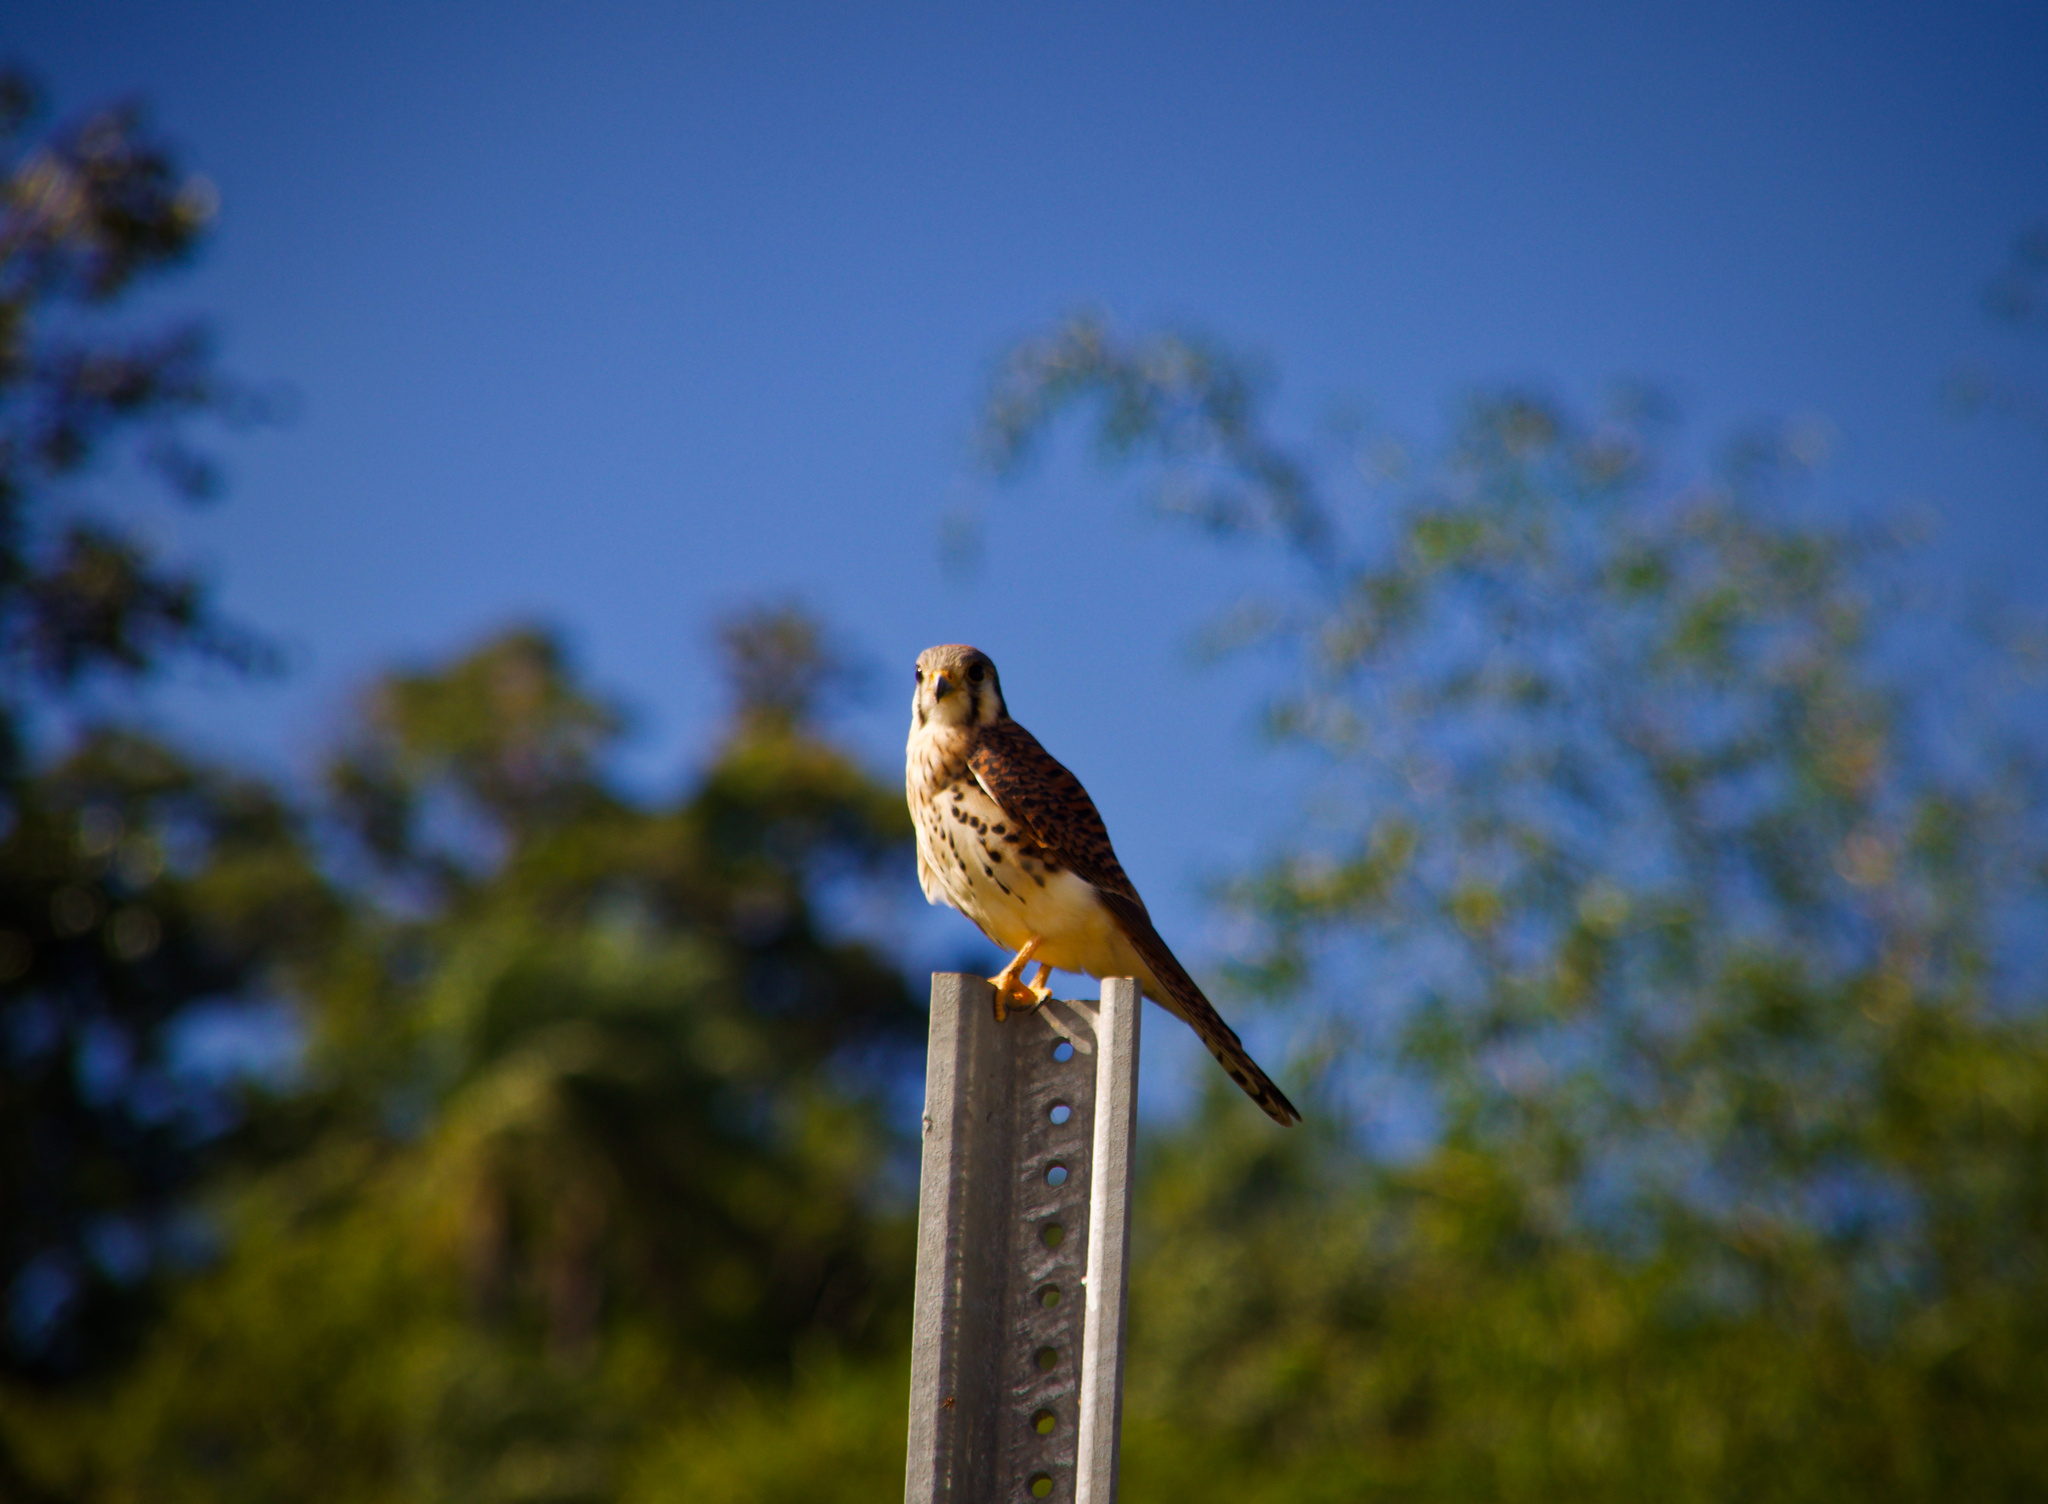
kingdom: Animalia
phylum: Chordata
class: Aves
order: Falconiformes
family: Falconidae
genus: Falco
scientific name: Falco sparverius
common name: American kestrel
